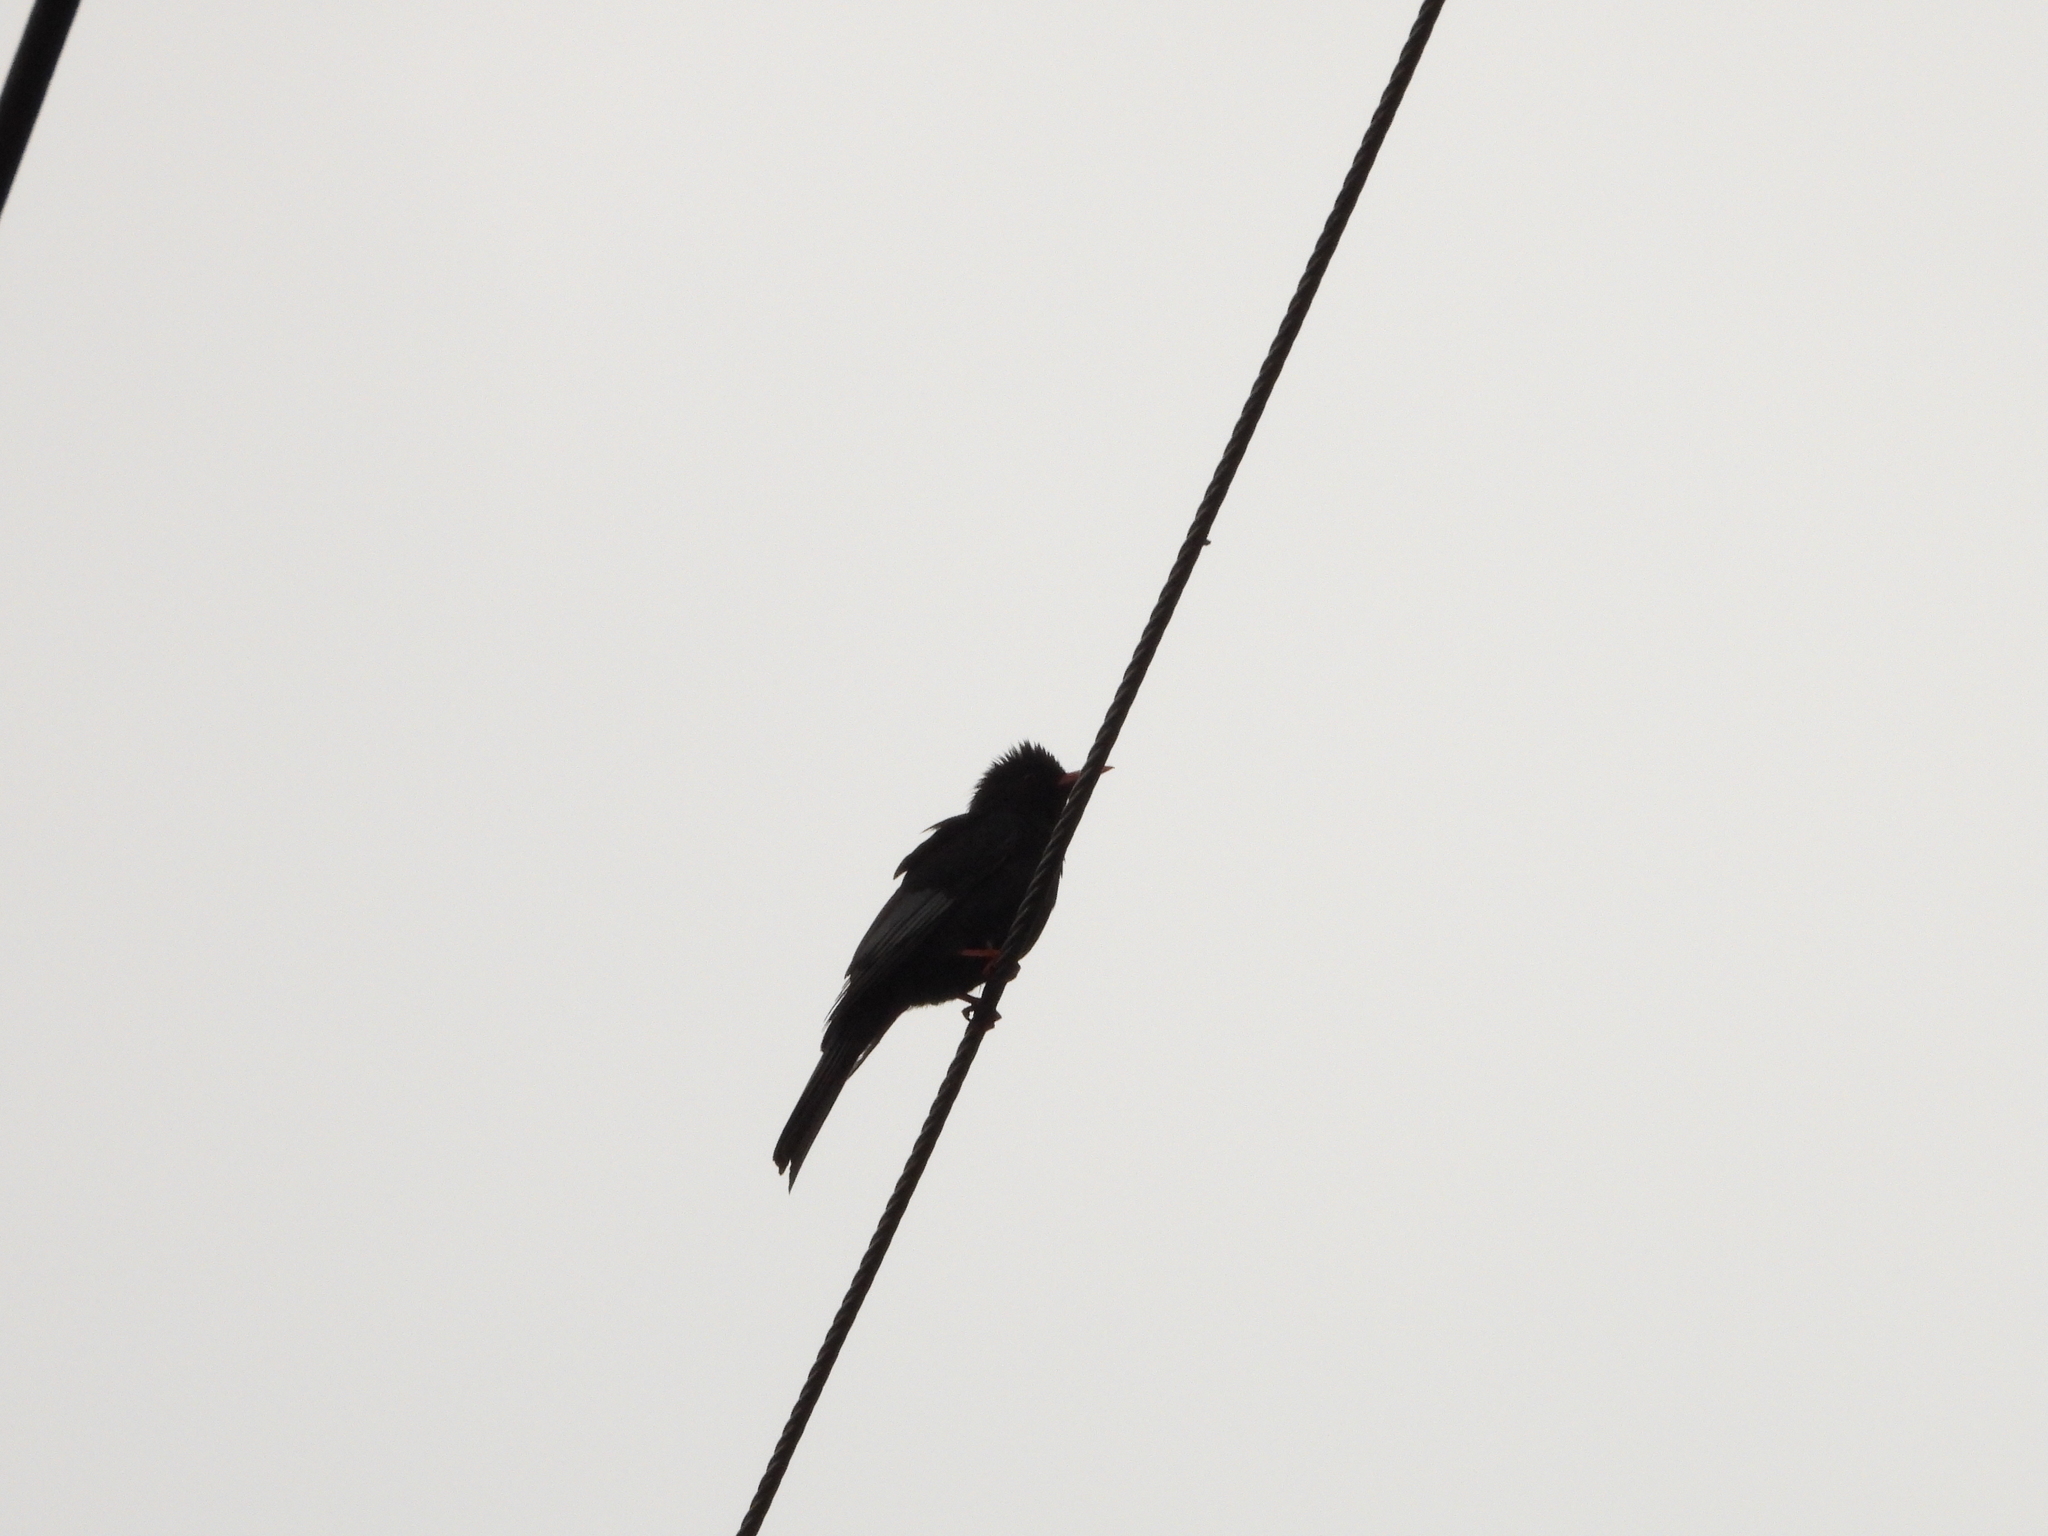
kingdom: Animalia
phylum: Chordata
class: Aves
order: Passeriformes
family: Pycnonotidae
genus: Hypsipetes
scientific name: Hypsipetes leucocephalus
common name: Black bulbul
